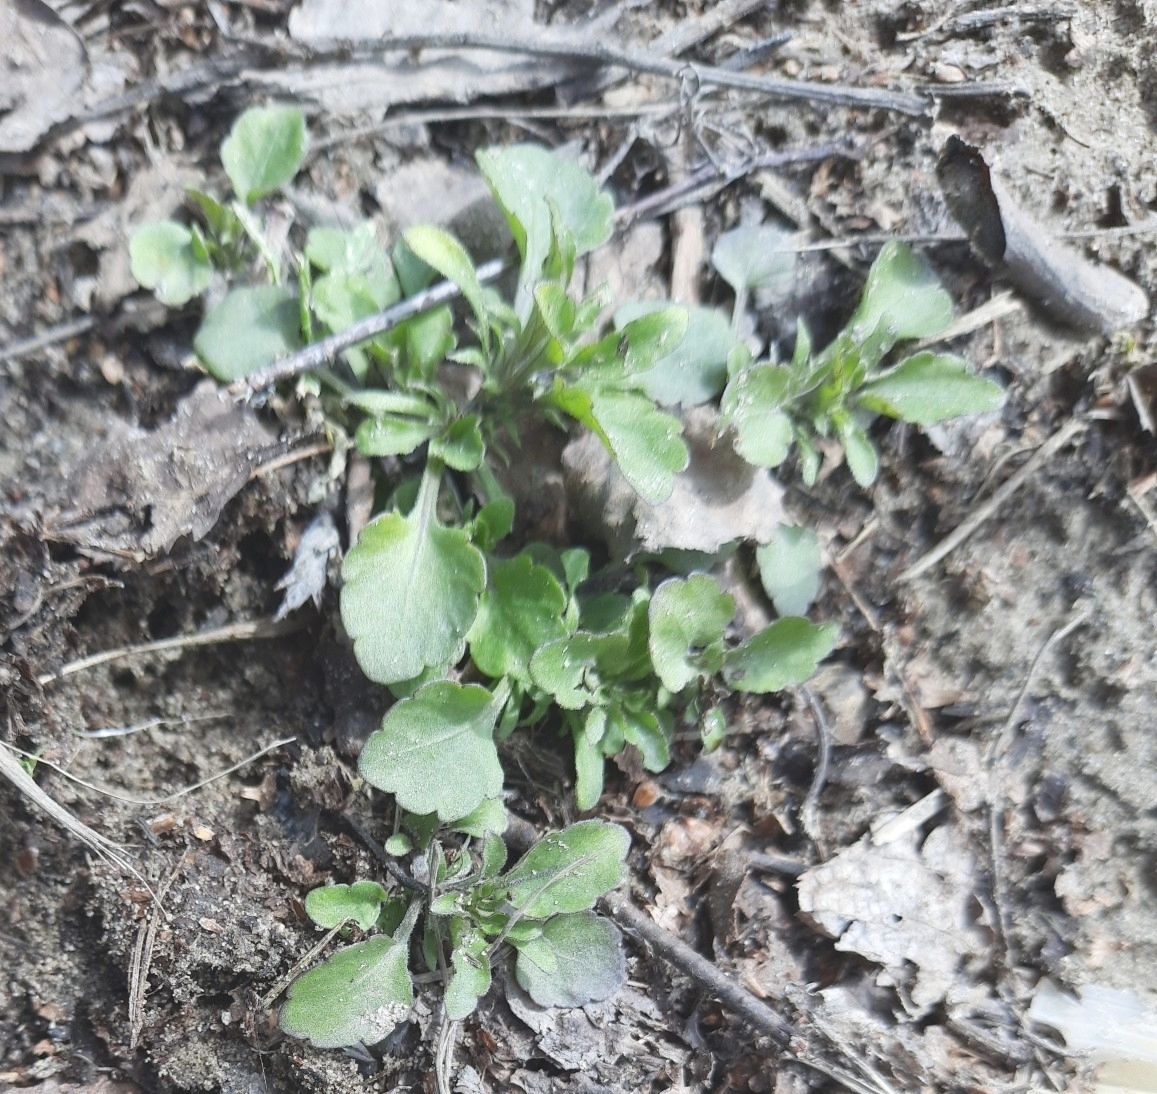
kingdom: Plantae
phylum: Tracheophyta
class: Magnoliopsida
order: Malpighiales
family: Violaceae
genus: Viola
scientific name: Viola arvensis
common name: Field pansy
